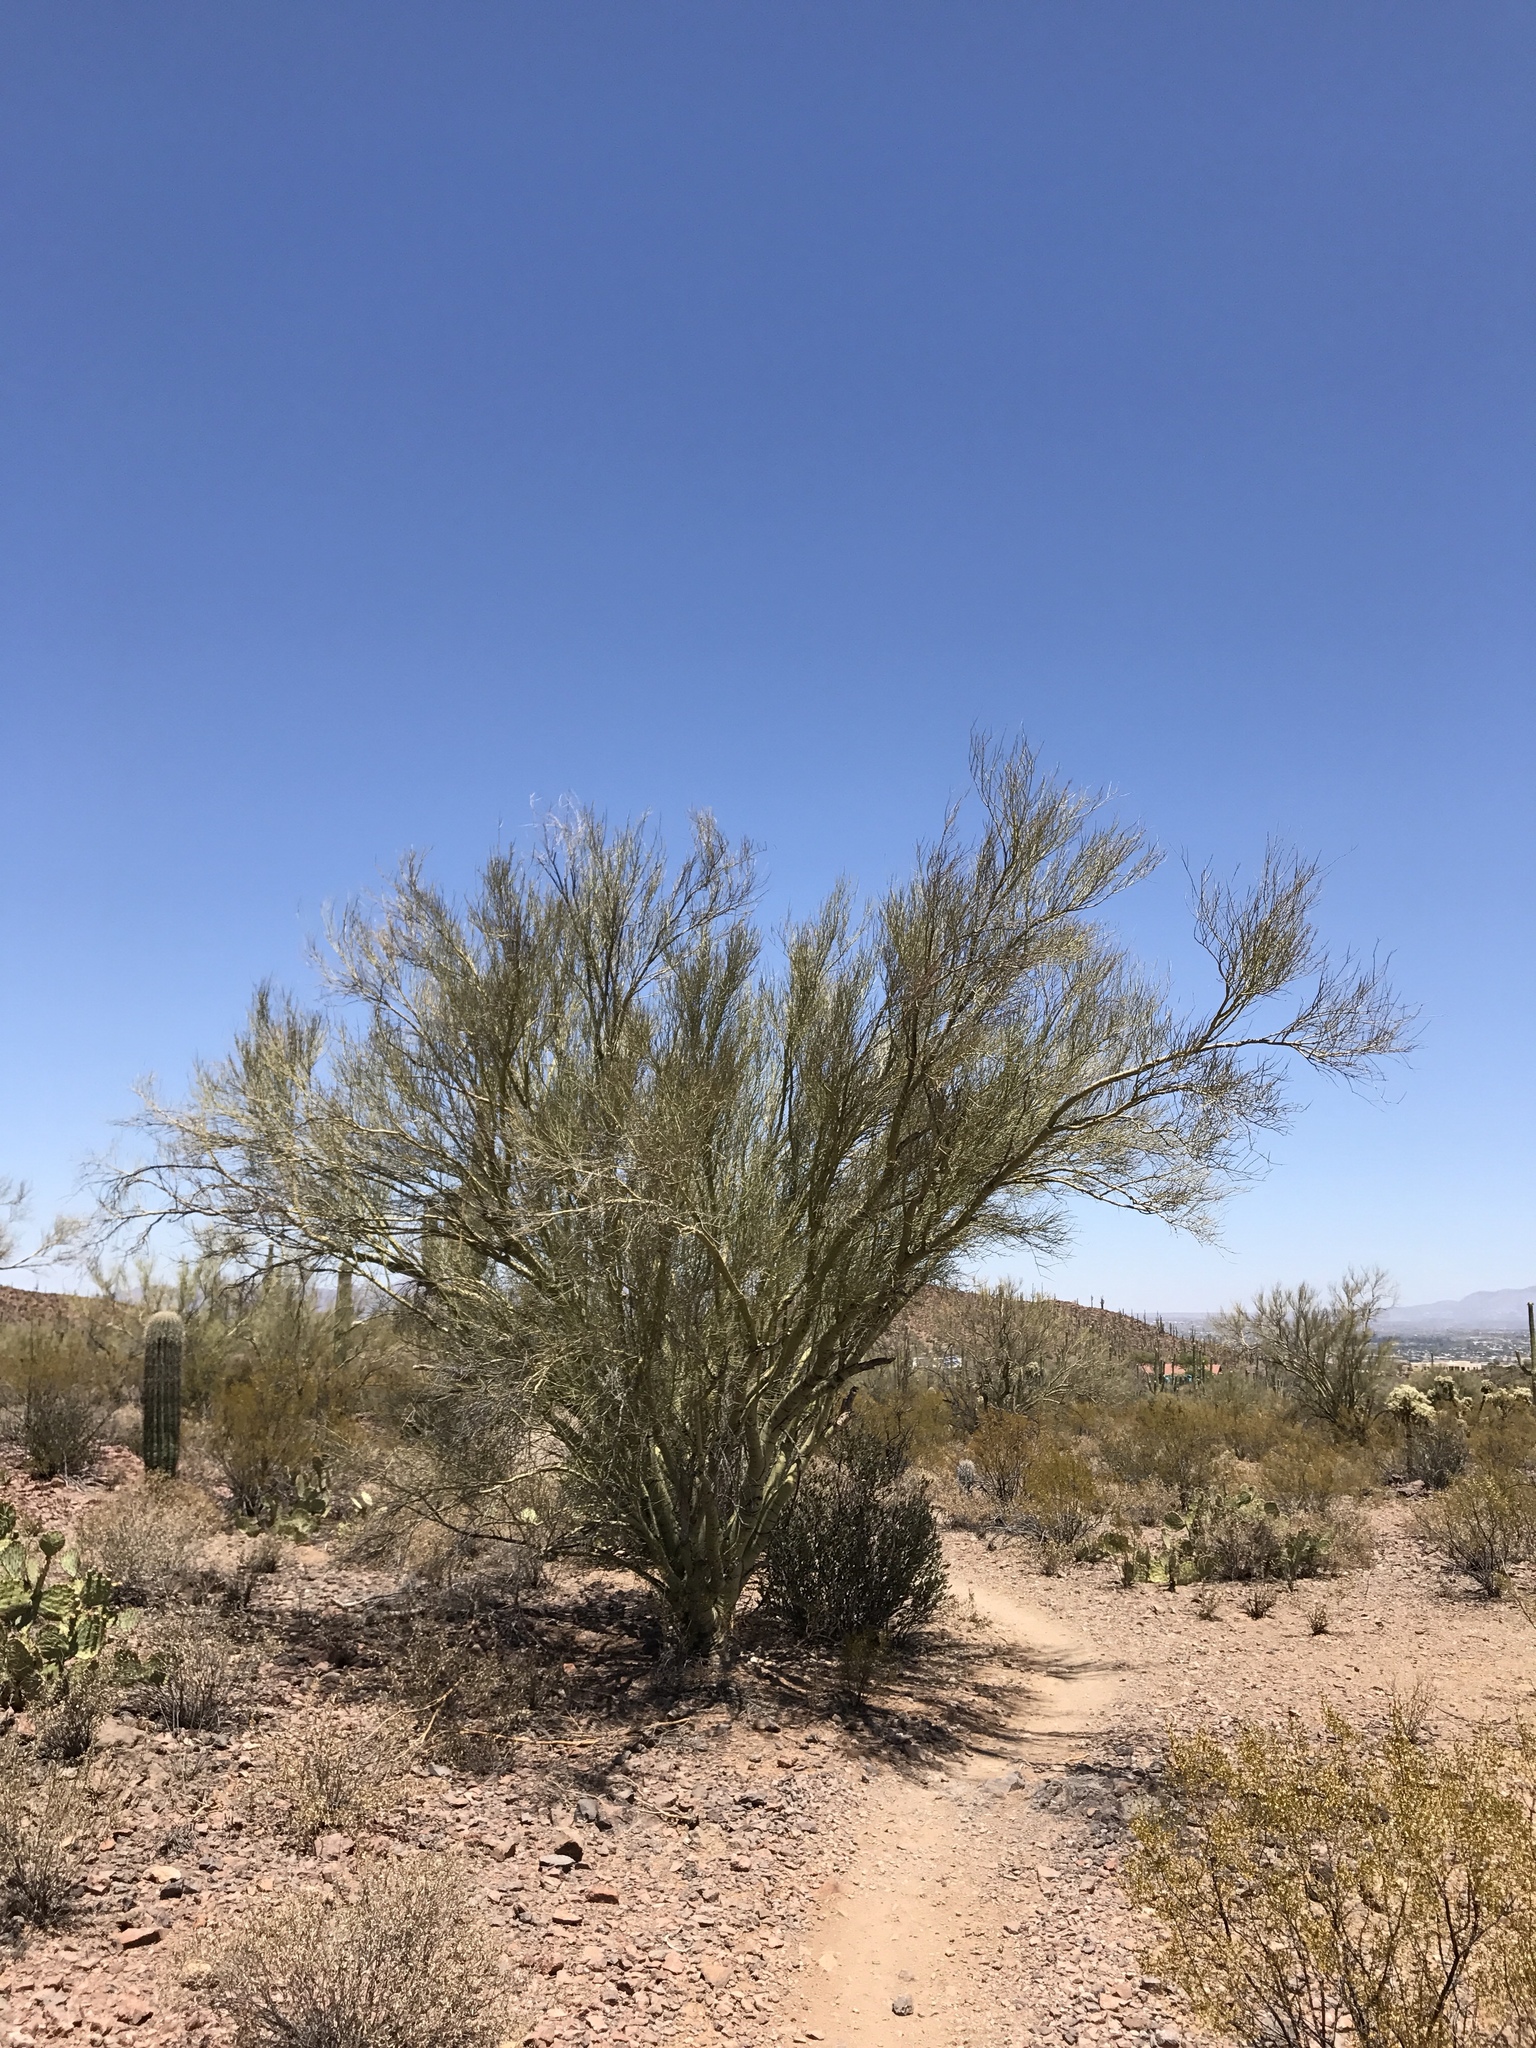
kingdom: Plantae
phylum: Tracheophyta
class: Magnoliopsida
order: Fabales
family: Fabaceae
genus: Parkinsonia
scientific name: Parkinsonia microphylla
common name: Yellow paloverde
